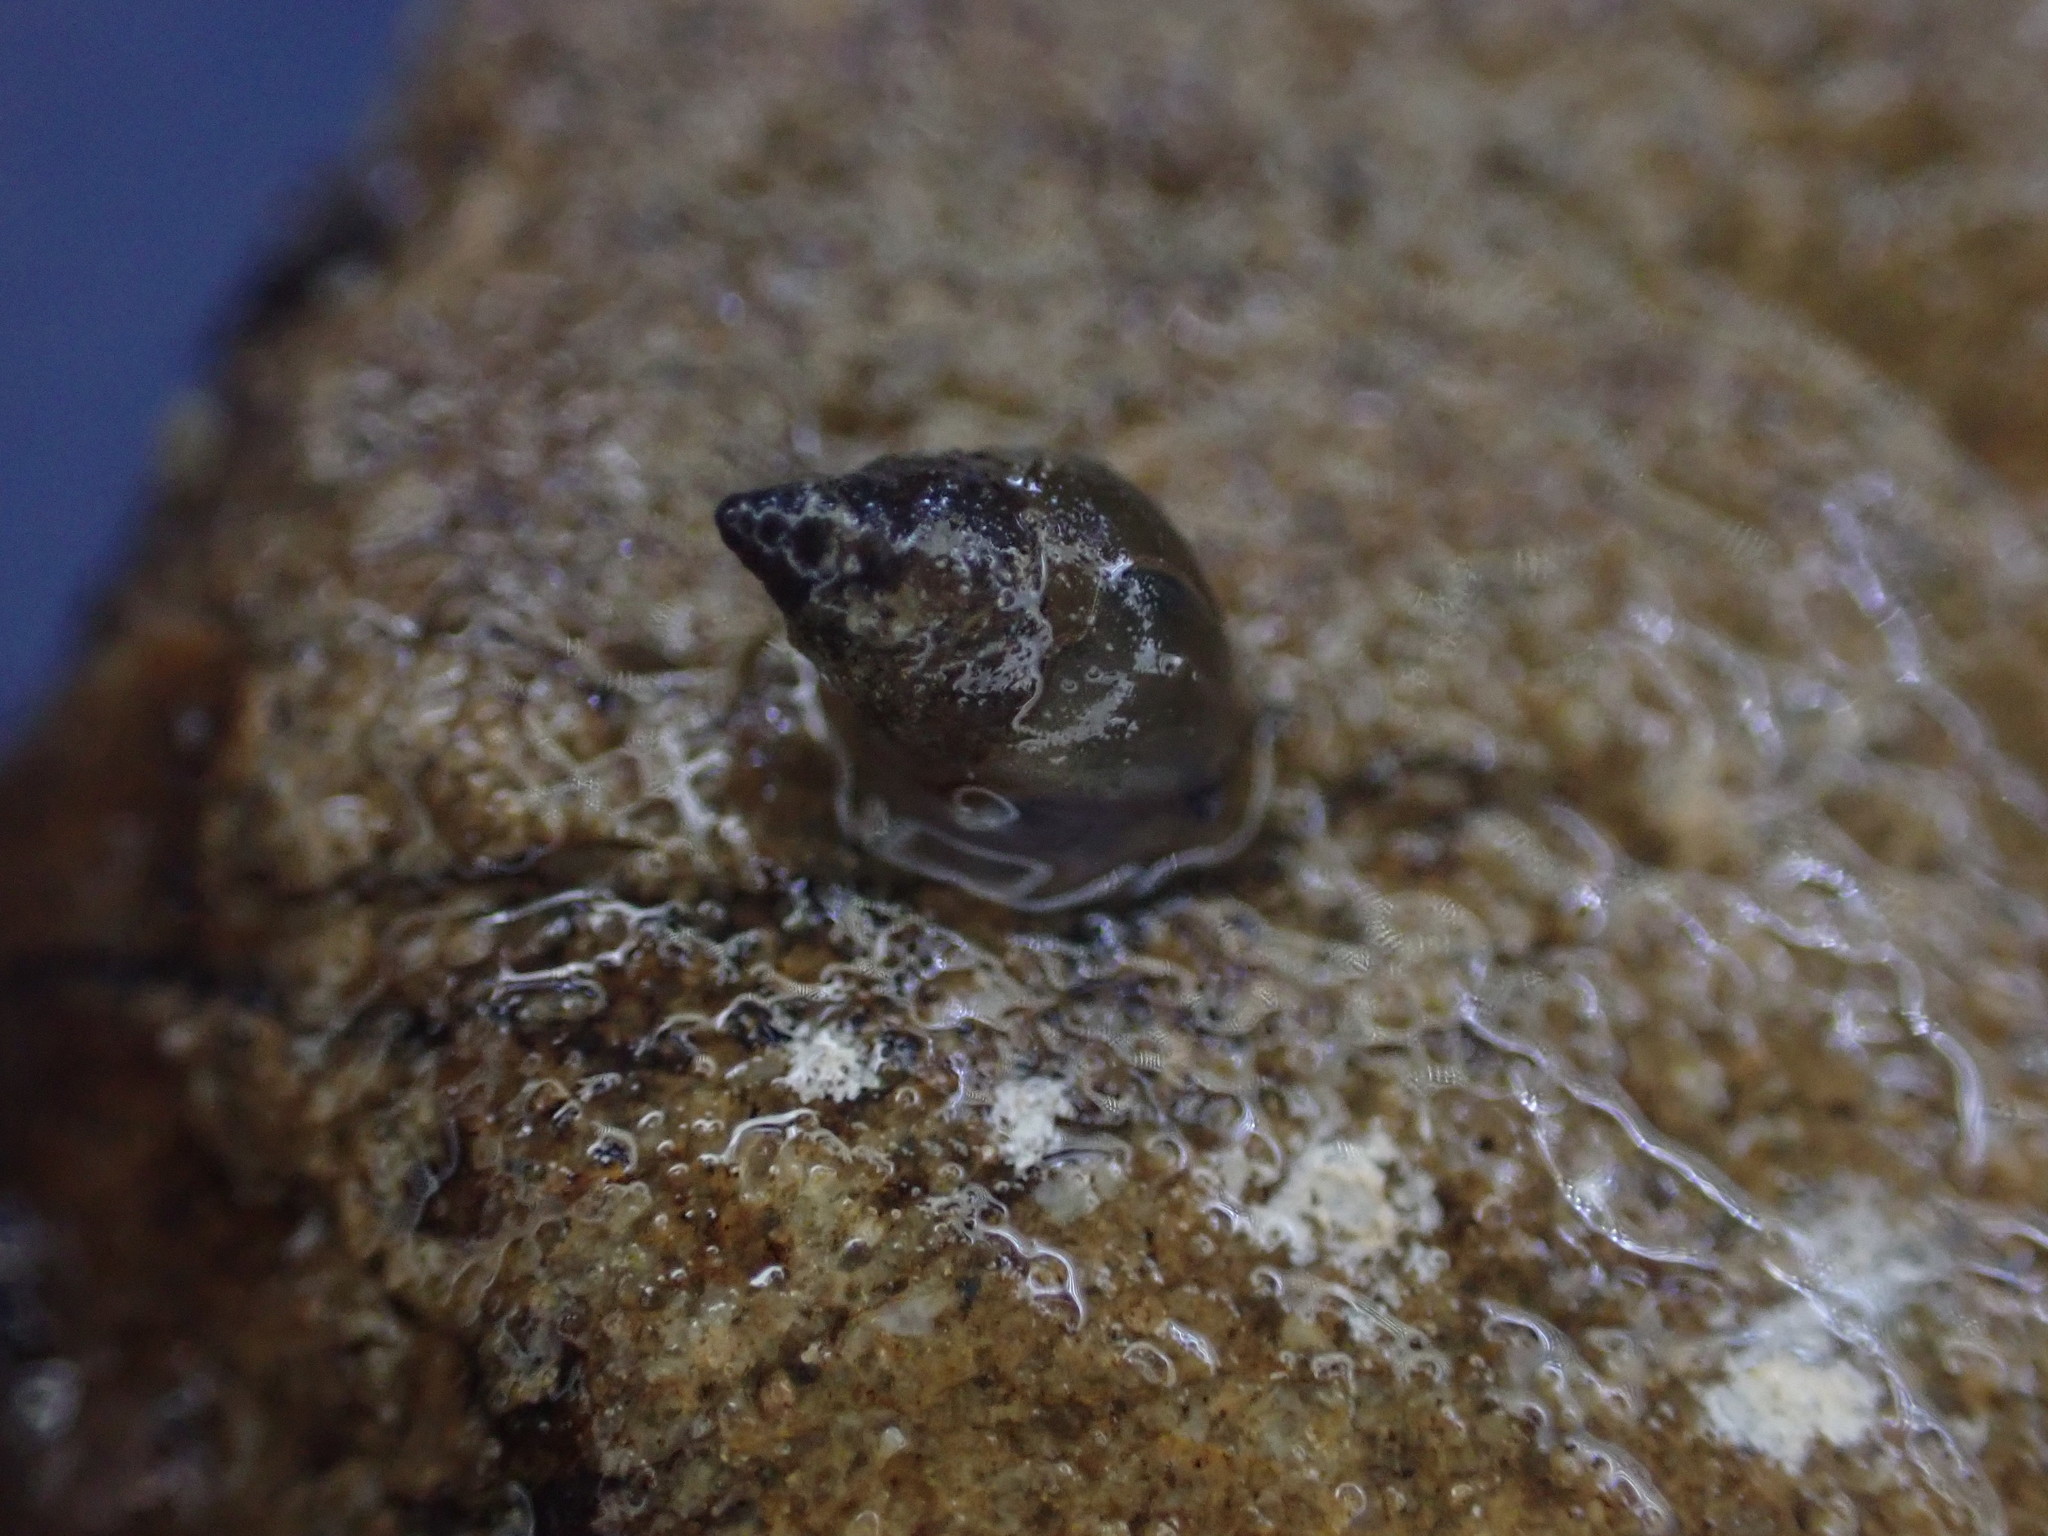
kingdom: Animalia
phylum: Mollusca
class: Gastropoda
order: Littorinimorpha
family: Tateidae
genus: Potamopyrgus
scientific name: Potamopyrgus antipodarum
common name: Jenkins' spire snail
